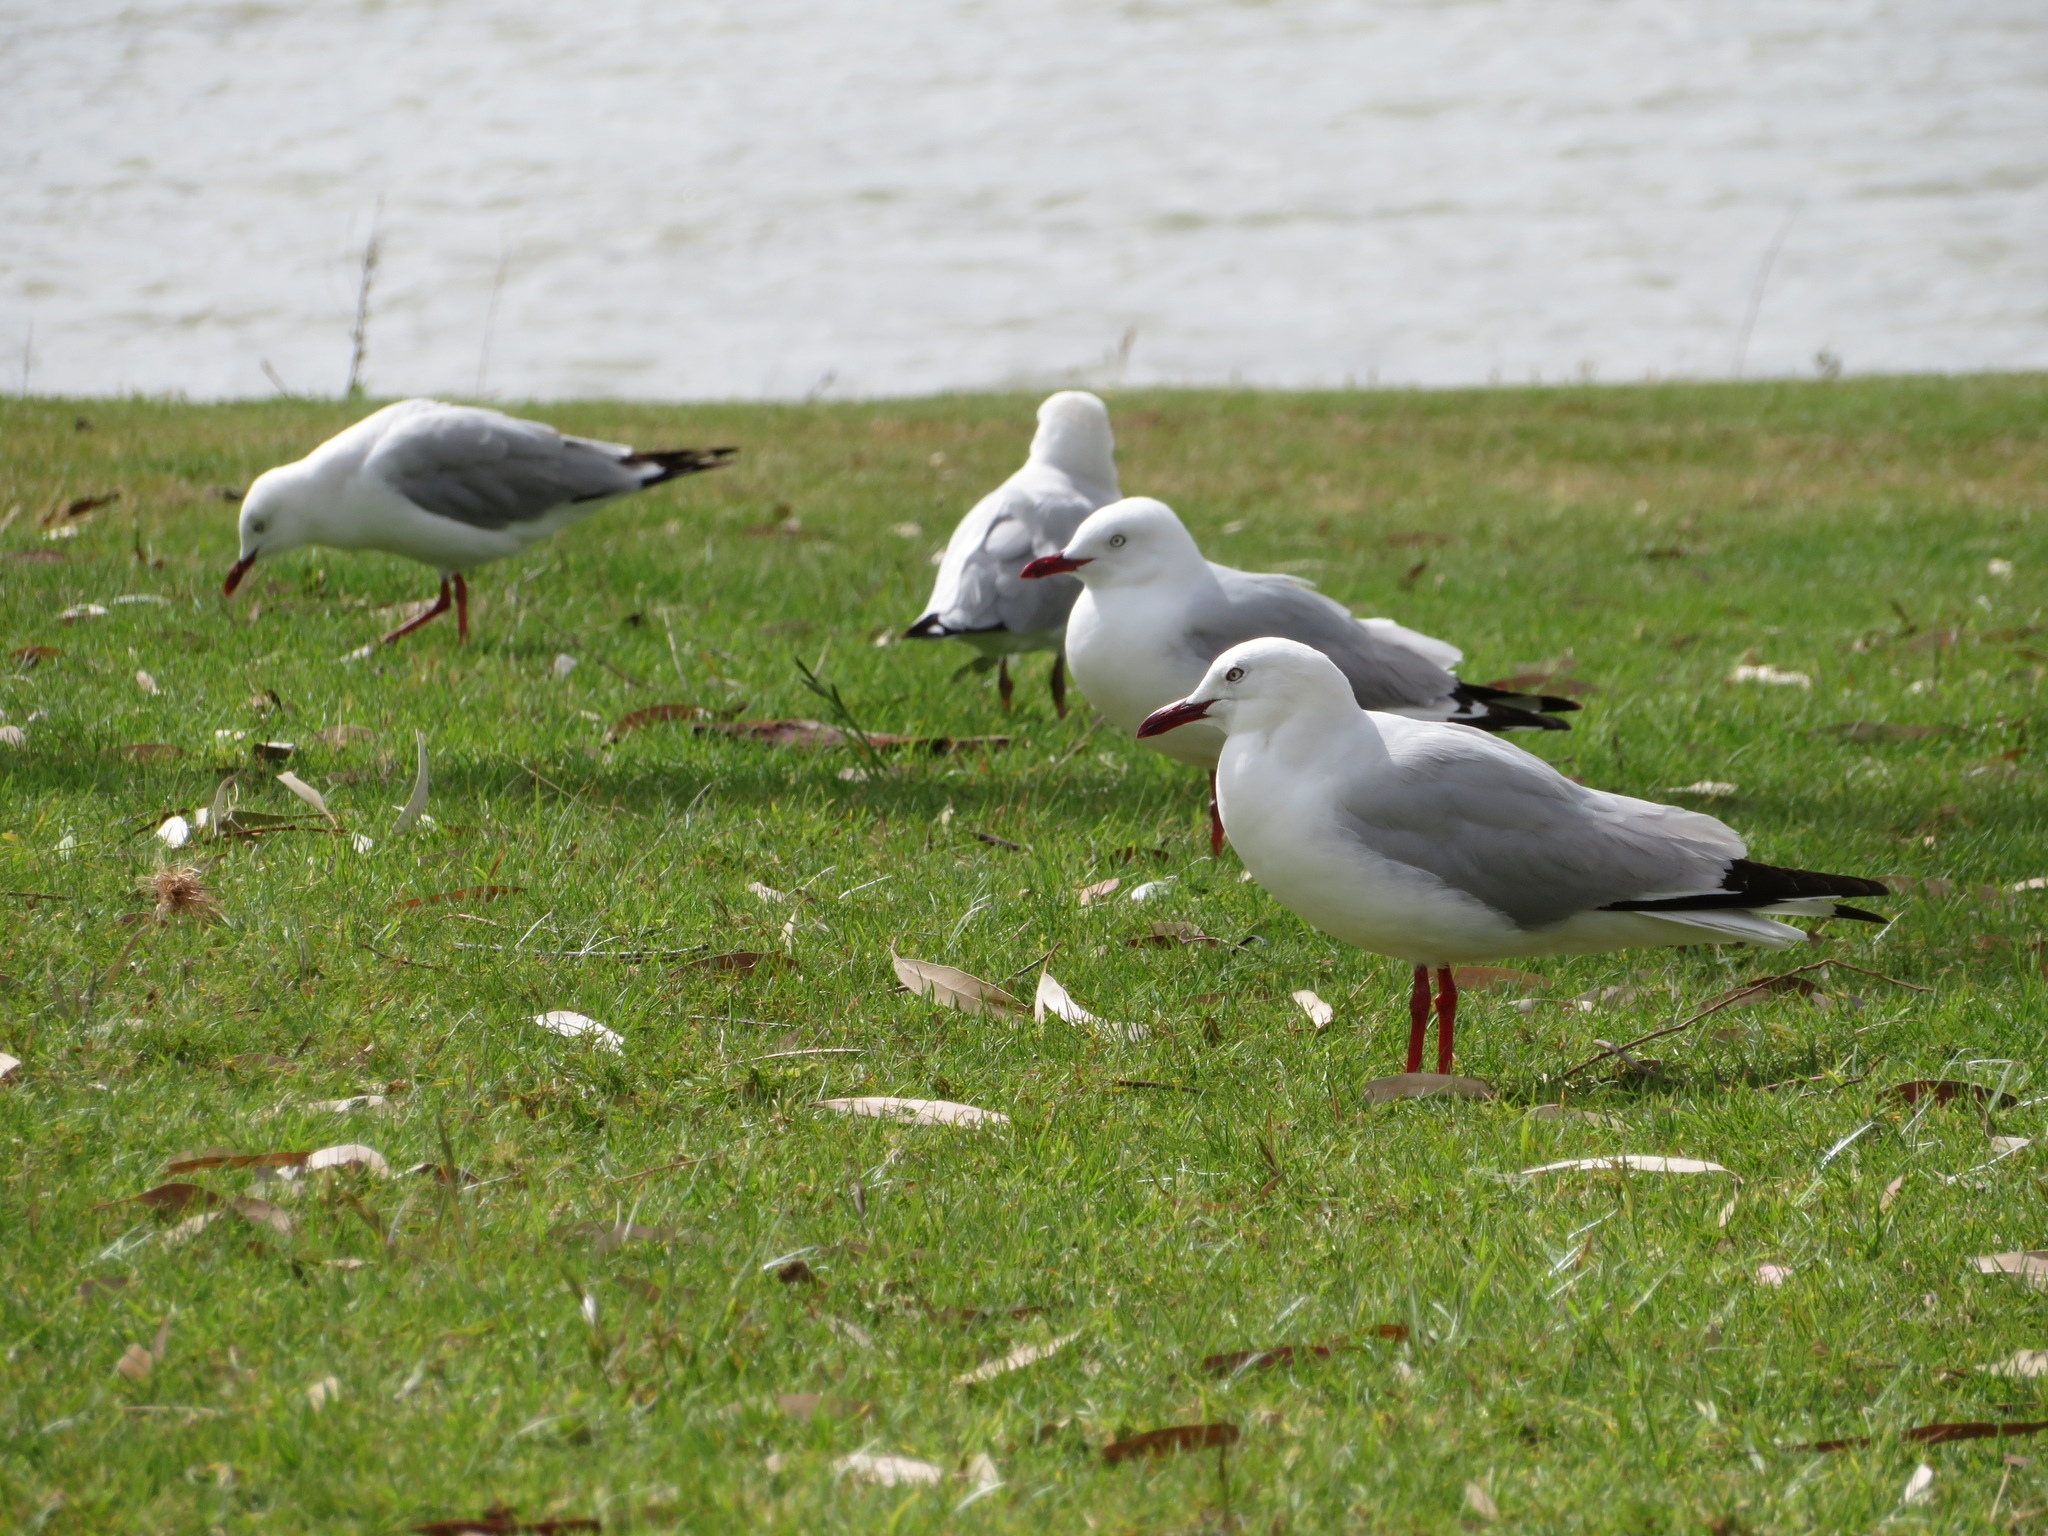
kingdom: Animalia
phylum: Chordata
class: Aves
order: Charadriiformes
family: Laridae
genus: Chroicocephalus
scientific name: Chroicocephalus novaehollandiae
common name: Silver gull
